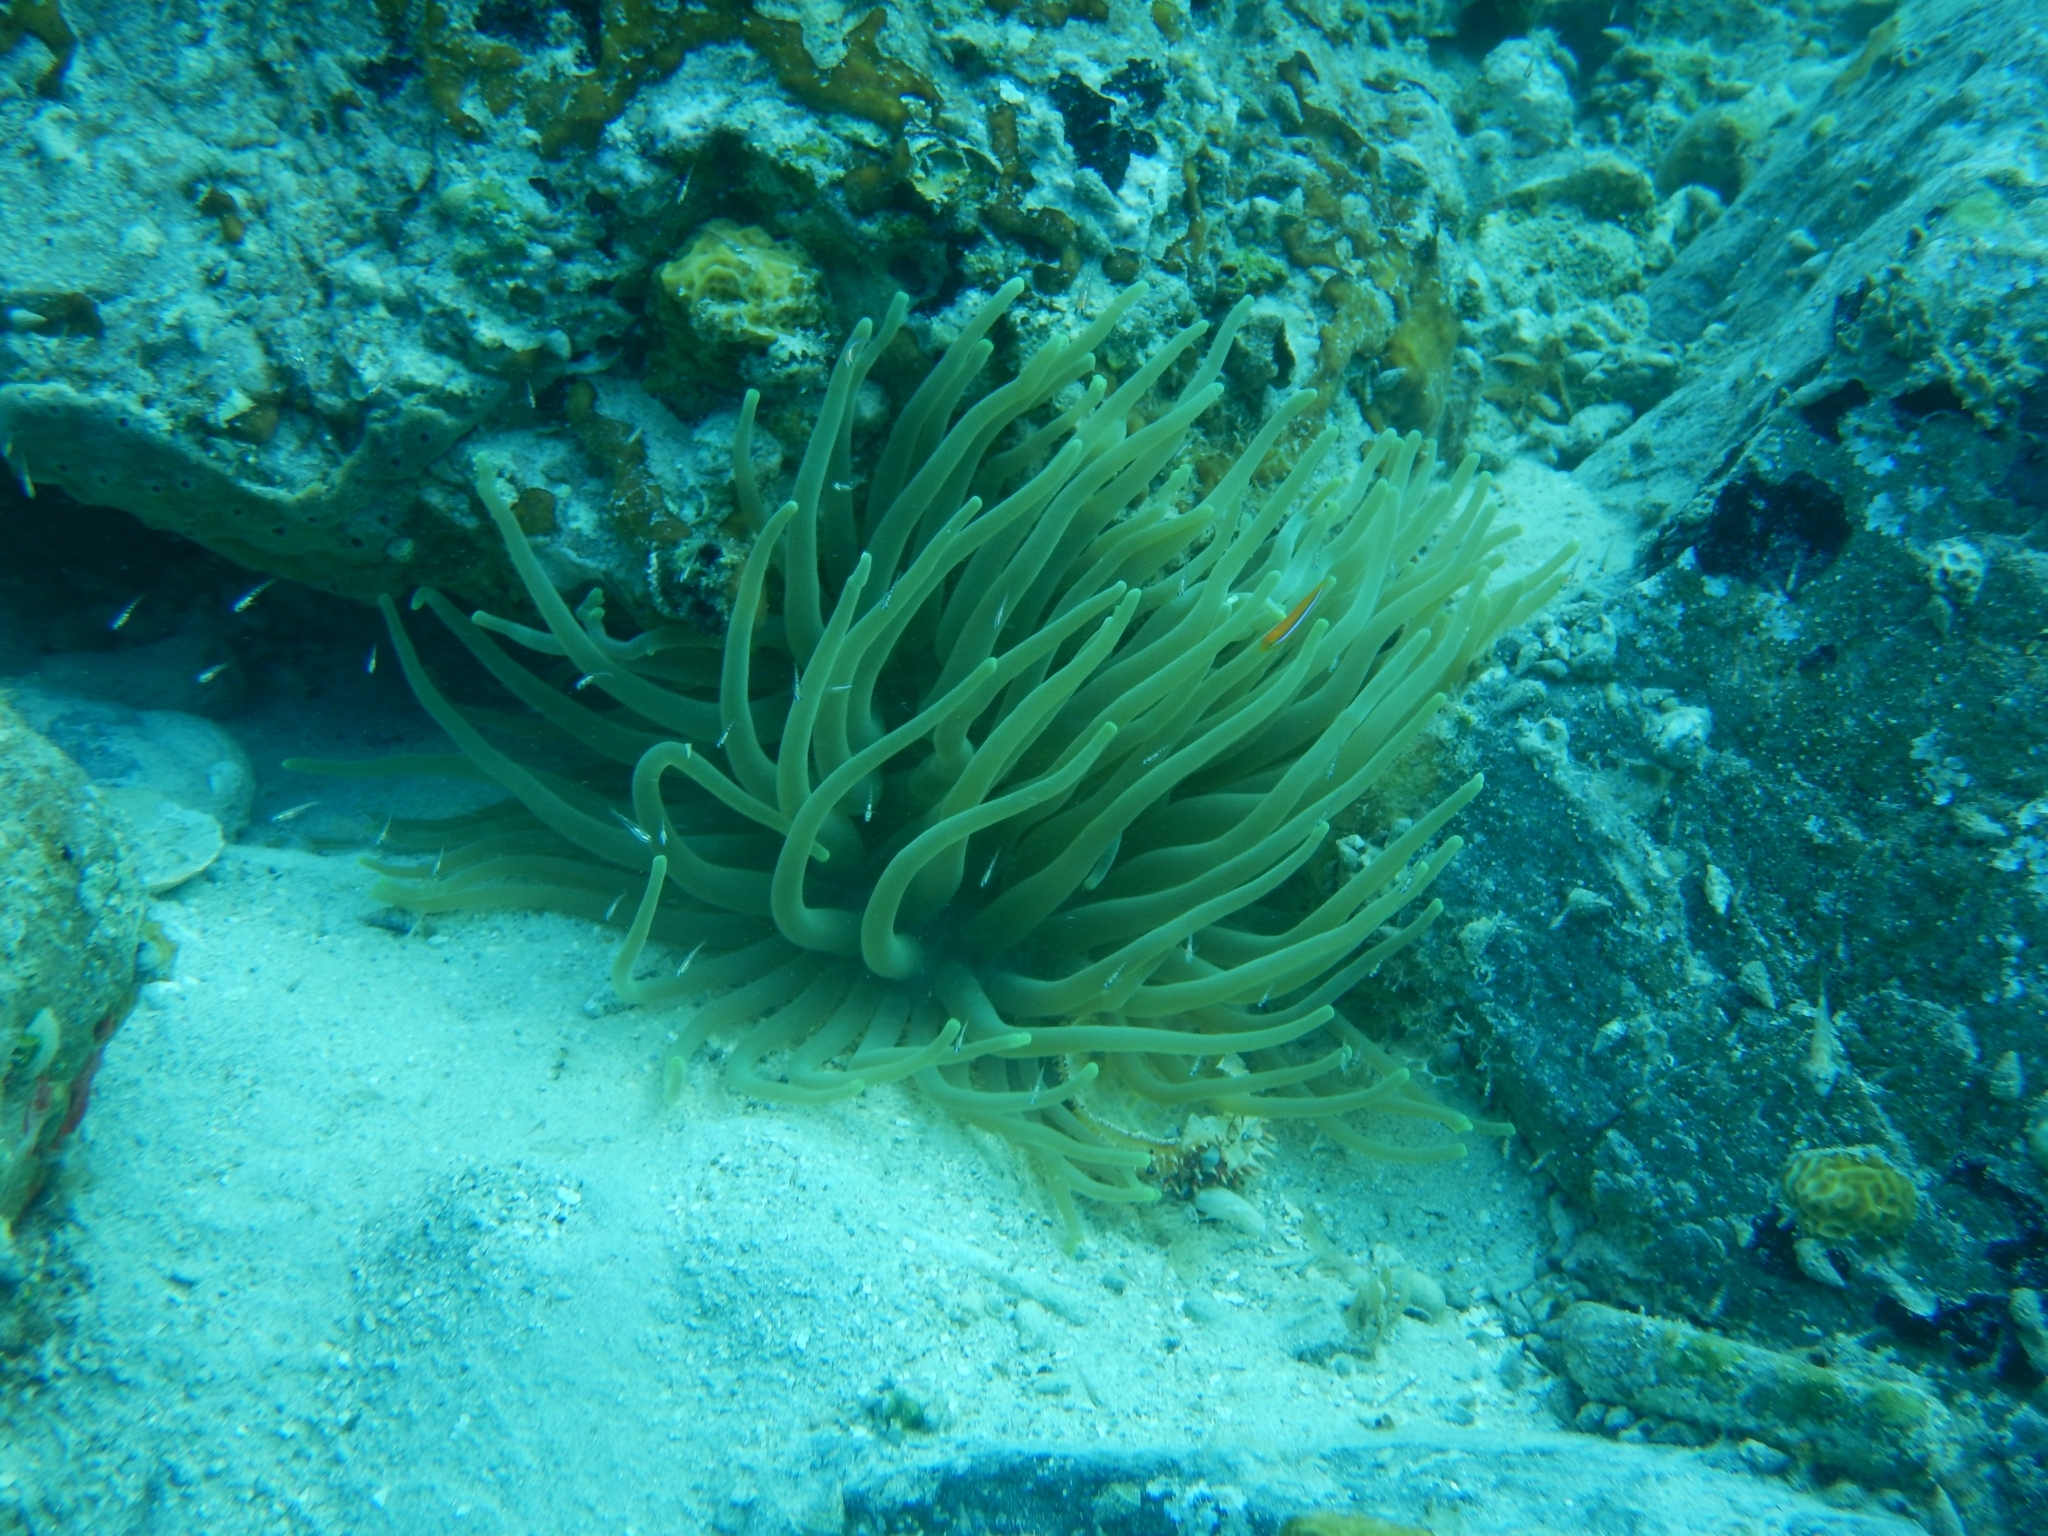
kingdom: Animalia
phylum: Cnidaria
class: Anthozoa
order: Actiniaria
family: Actiniidae
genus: Condylactis
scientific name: Condylactis gigantea
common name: Giant caribbean anemone
